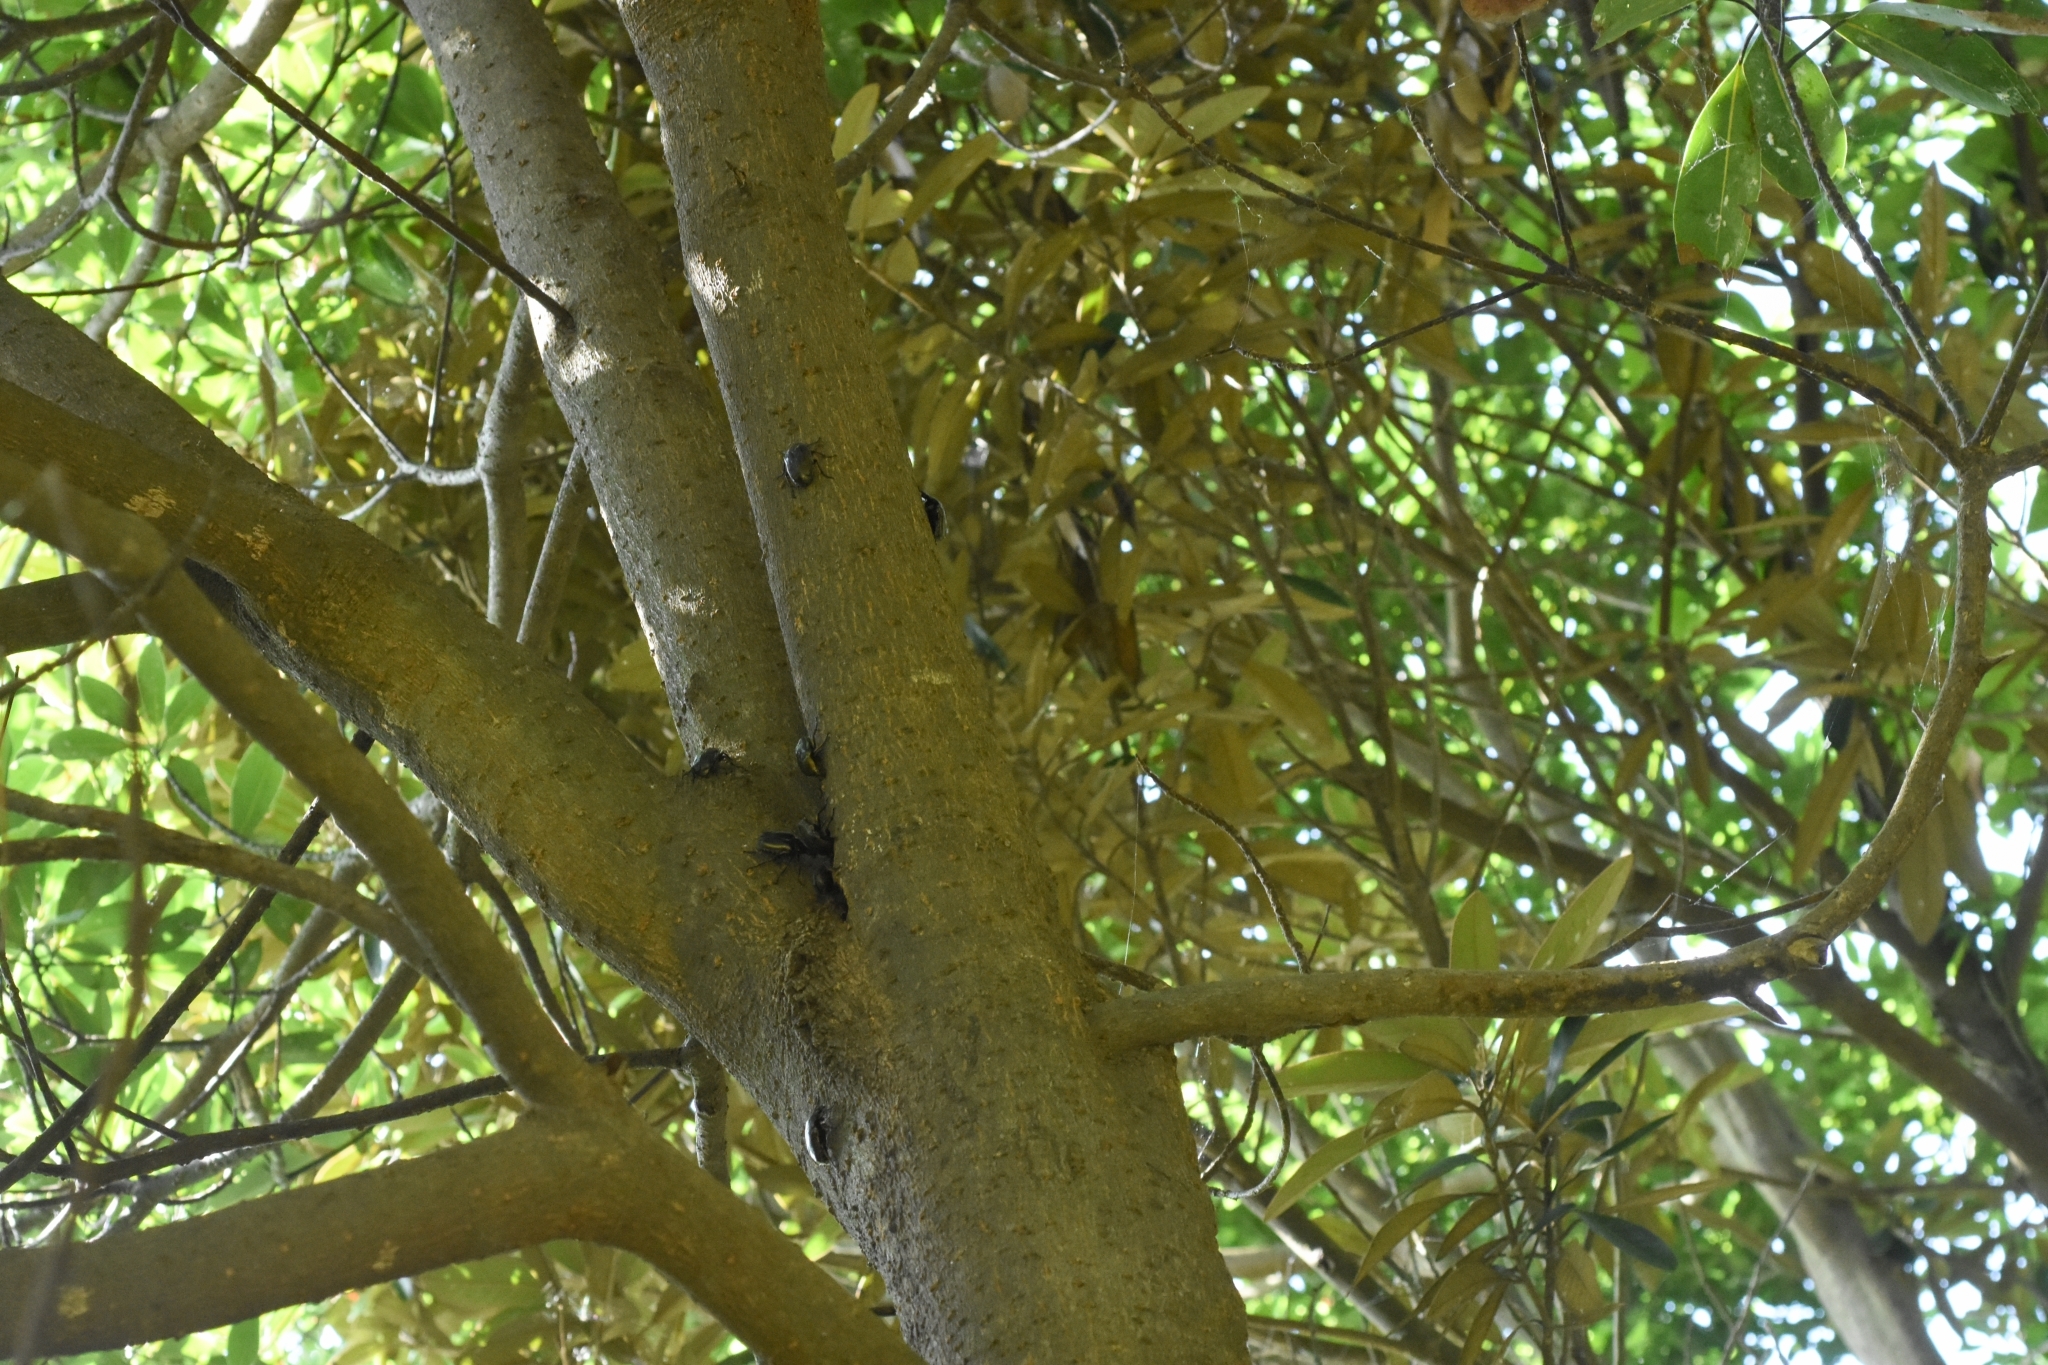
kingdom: Animalia
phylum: Arthropoda
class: Insecta
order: Coleoptera
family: Scarabaeidae
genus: Pseudotorynorrhina
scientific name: Pseudotorynorrhina japonica
